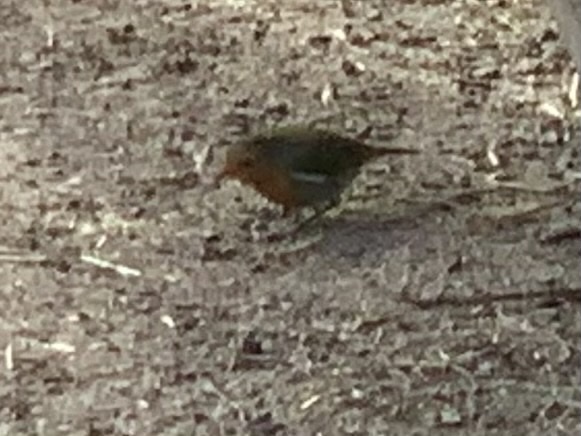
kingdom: Animalia
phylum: Chordata
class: Aves
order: Passeriformes
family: Muscicapidae
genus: Erithacus
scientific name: Erithacus rubecula
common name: European robin
